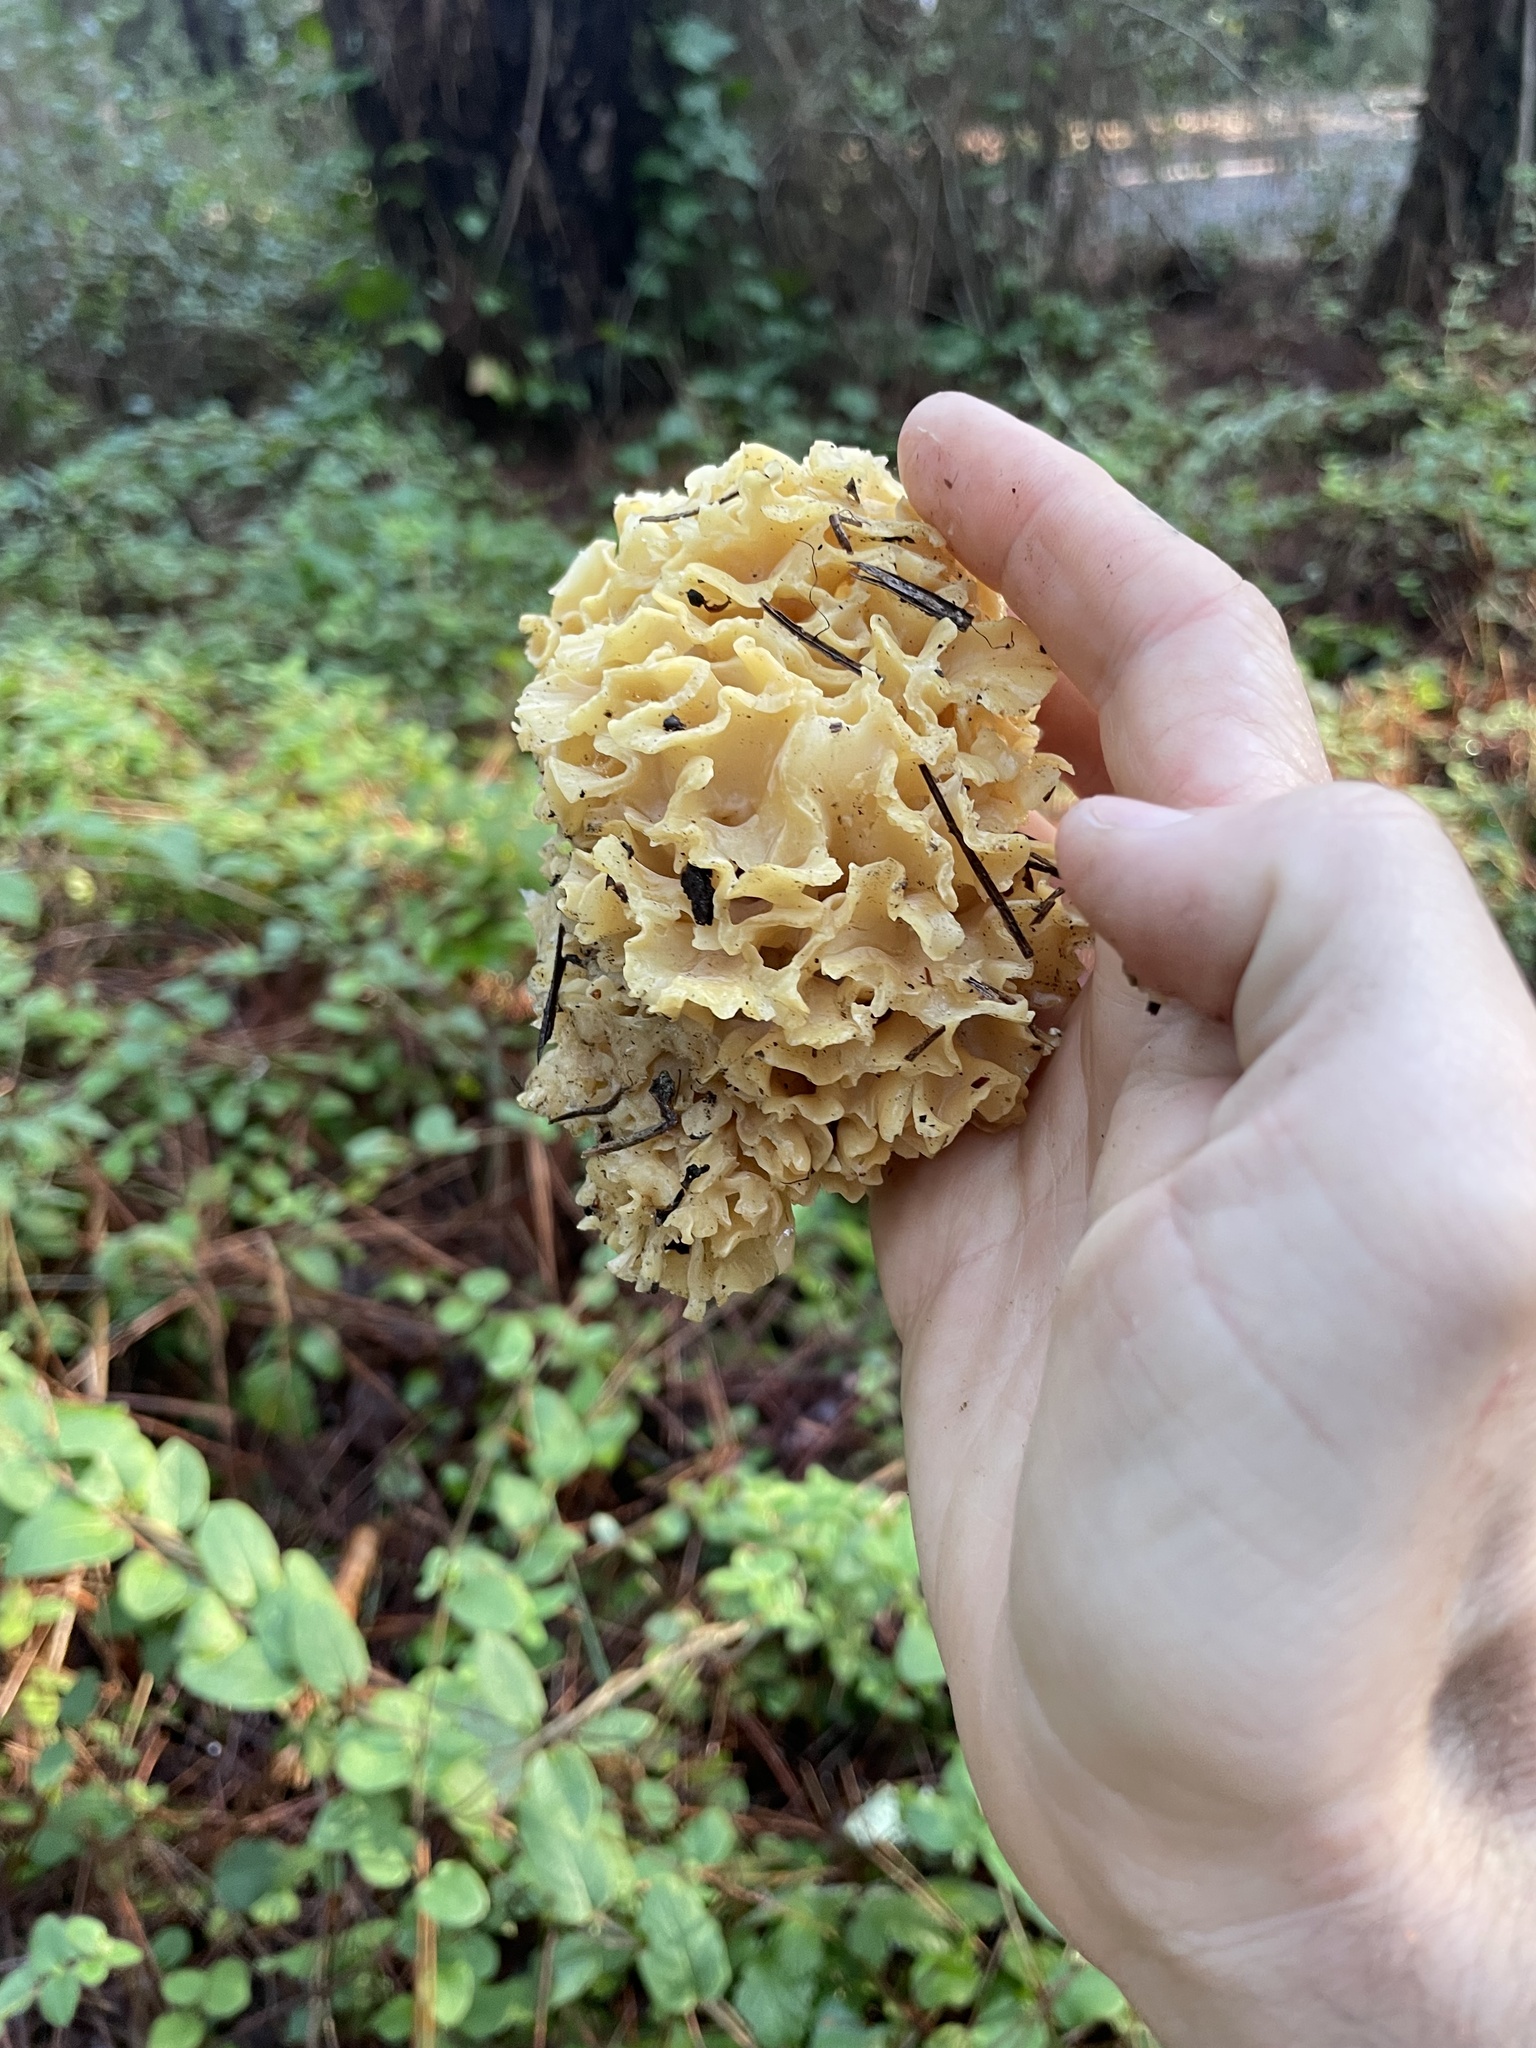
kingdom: Fungi
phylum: Basidiomycota
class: Agaricomycetes
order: Polyporales
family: Sparassidaceae
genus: Sparassis
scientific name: Sparassis radicata
